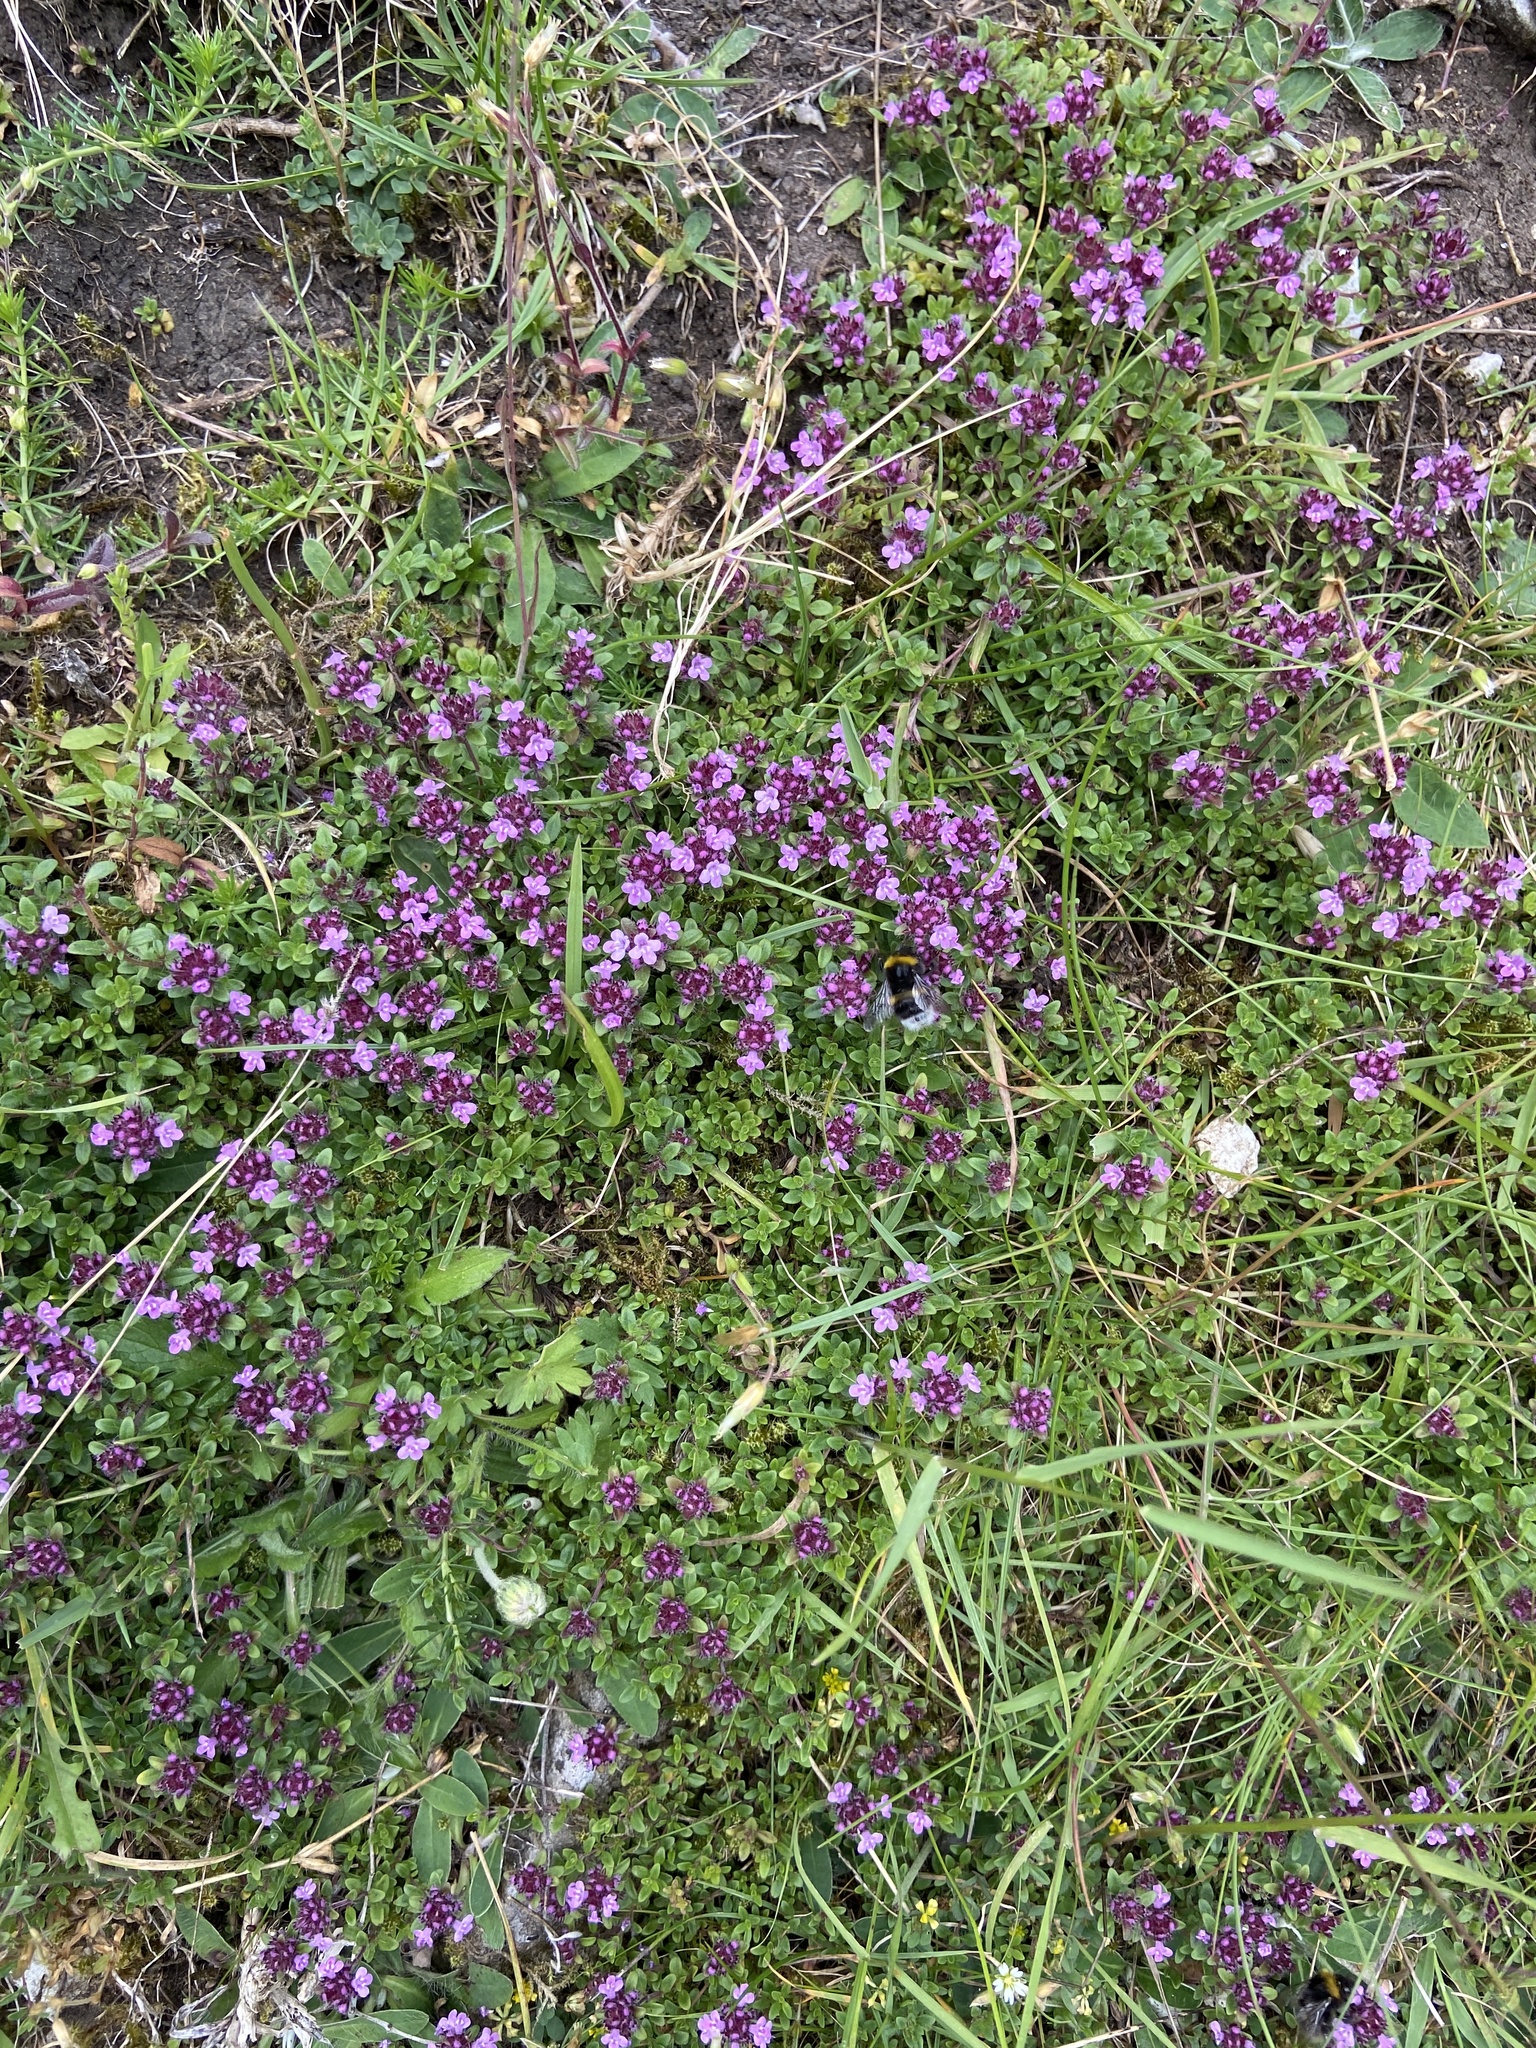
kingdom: Plantae
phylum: Tracheophyta
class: Magnoliopsida
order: Lamiales
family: Lamiaceae
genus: Thymus
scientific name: Thymus praecox
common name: Wild thyme
